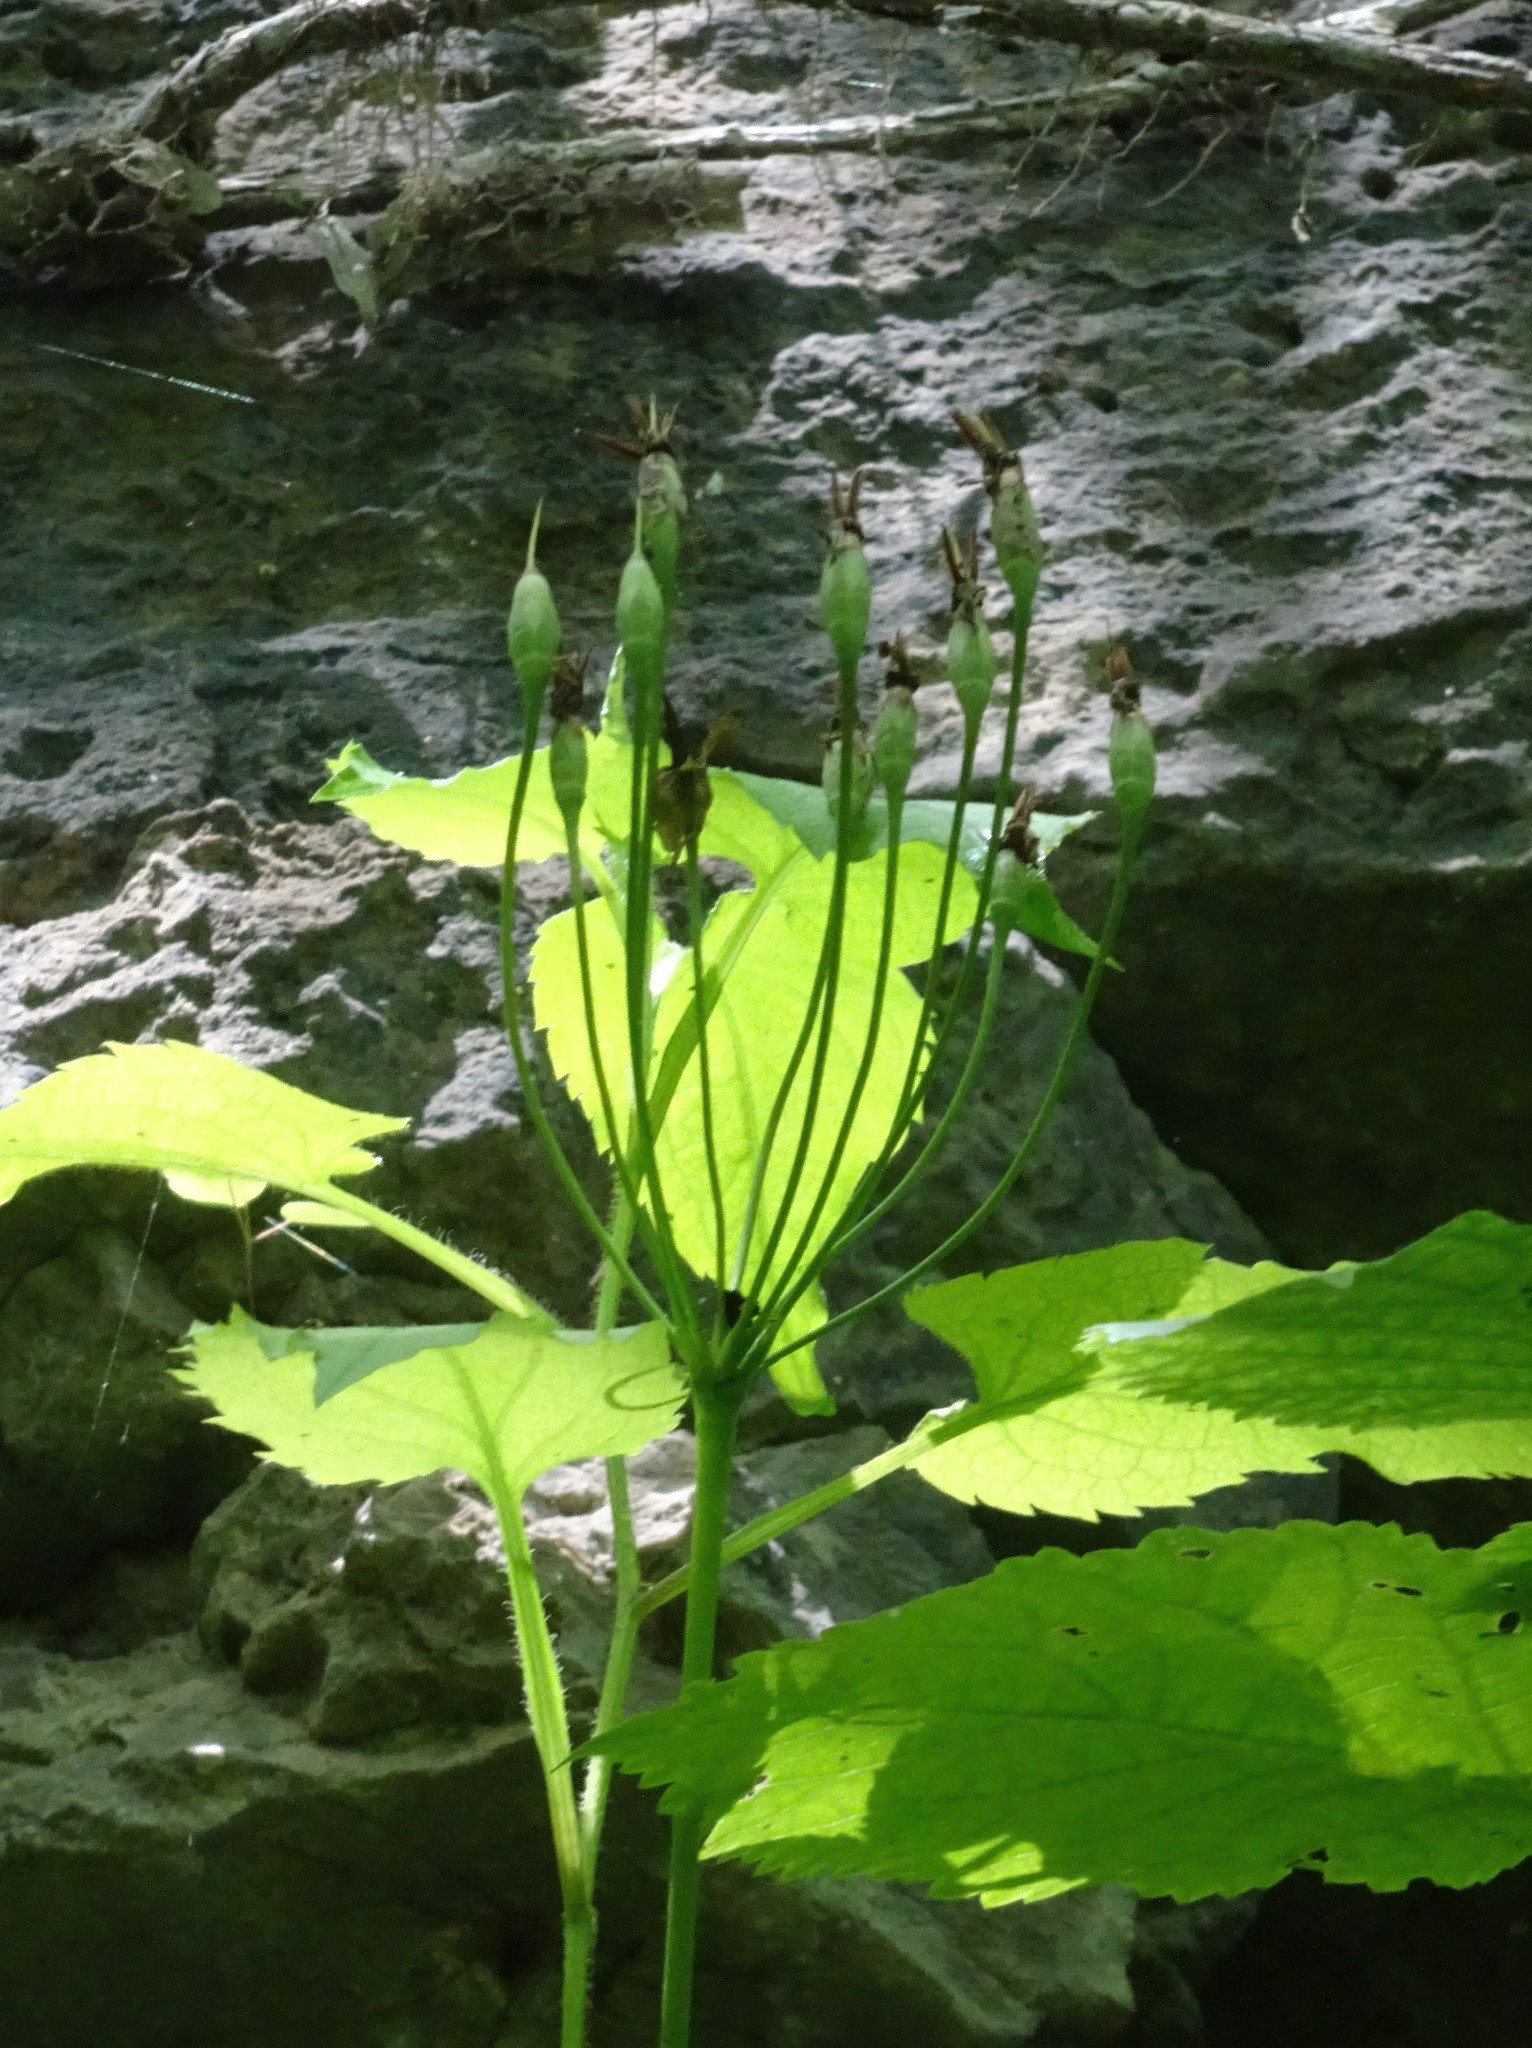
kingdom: Plantae
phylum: Tracheophyta
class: Magnoliopsida
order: Ericales
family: Primulaceae
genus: Dodecatheon
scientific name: Dodecatheon meadia
